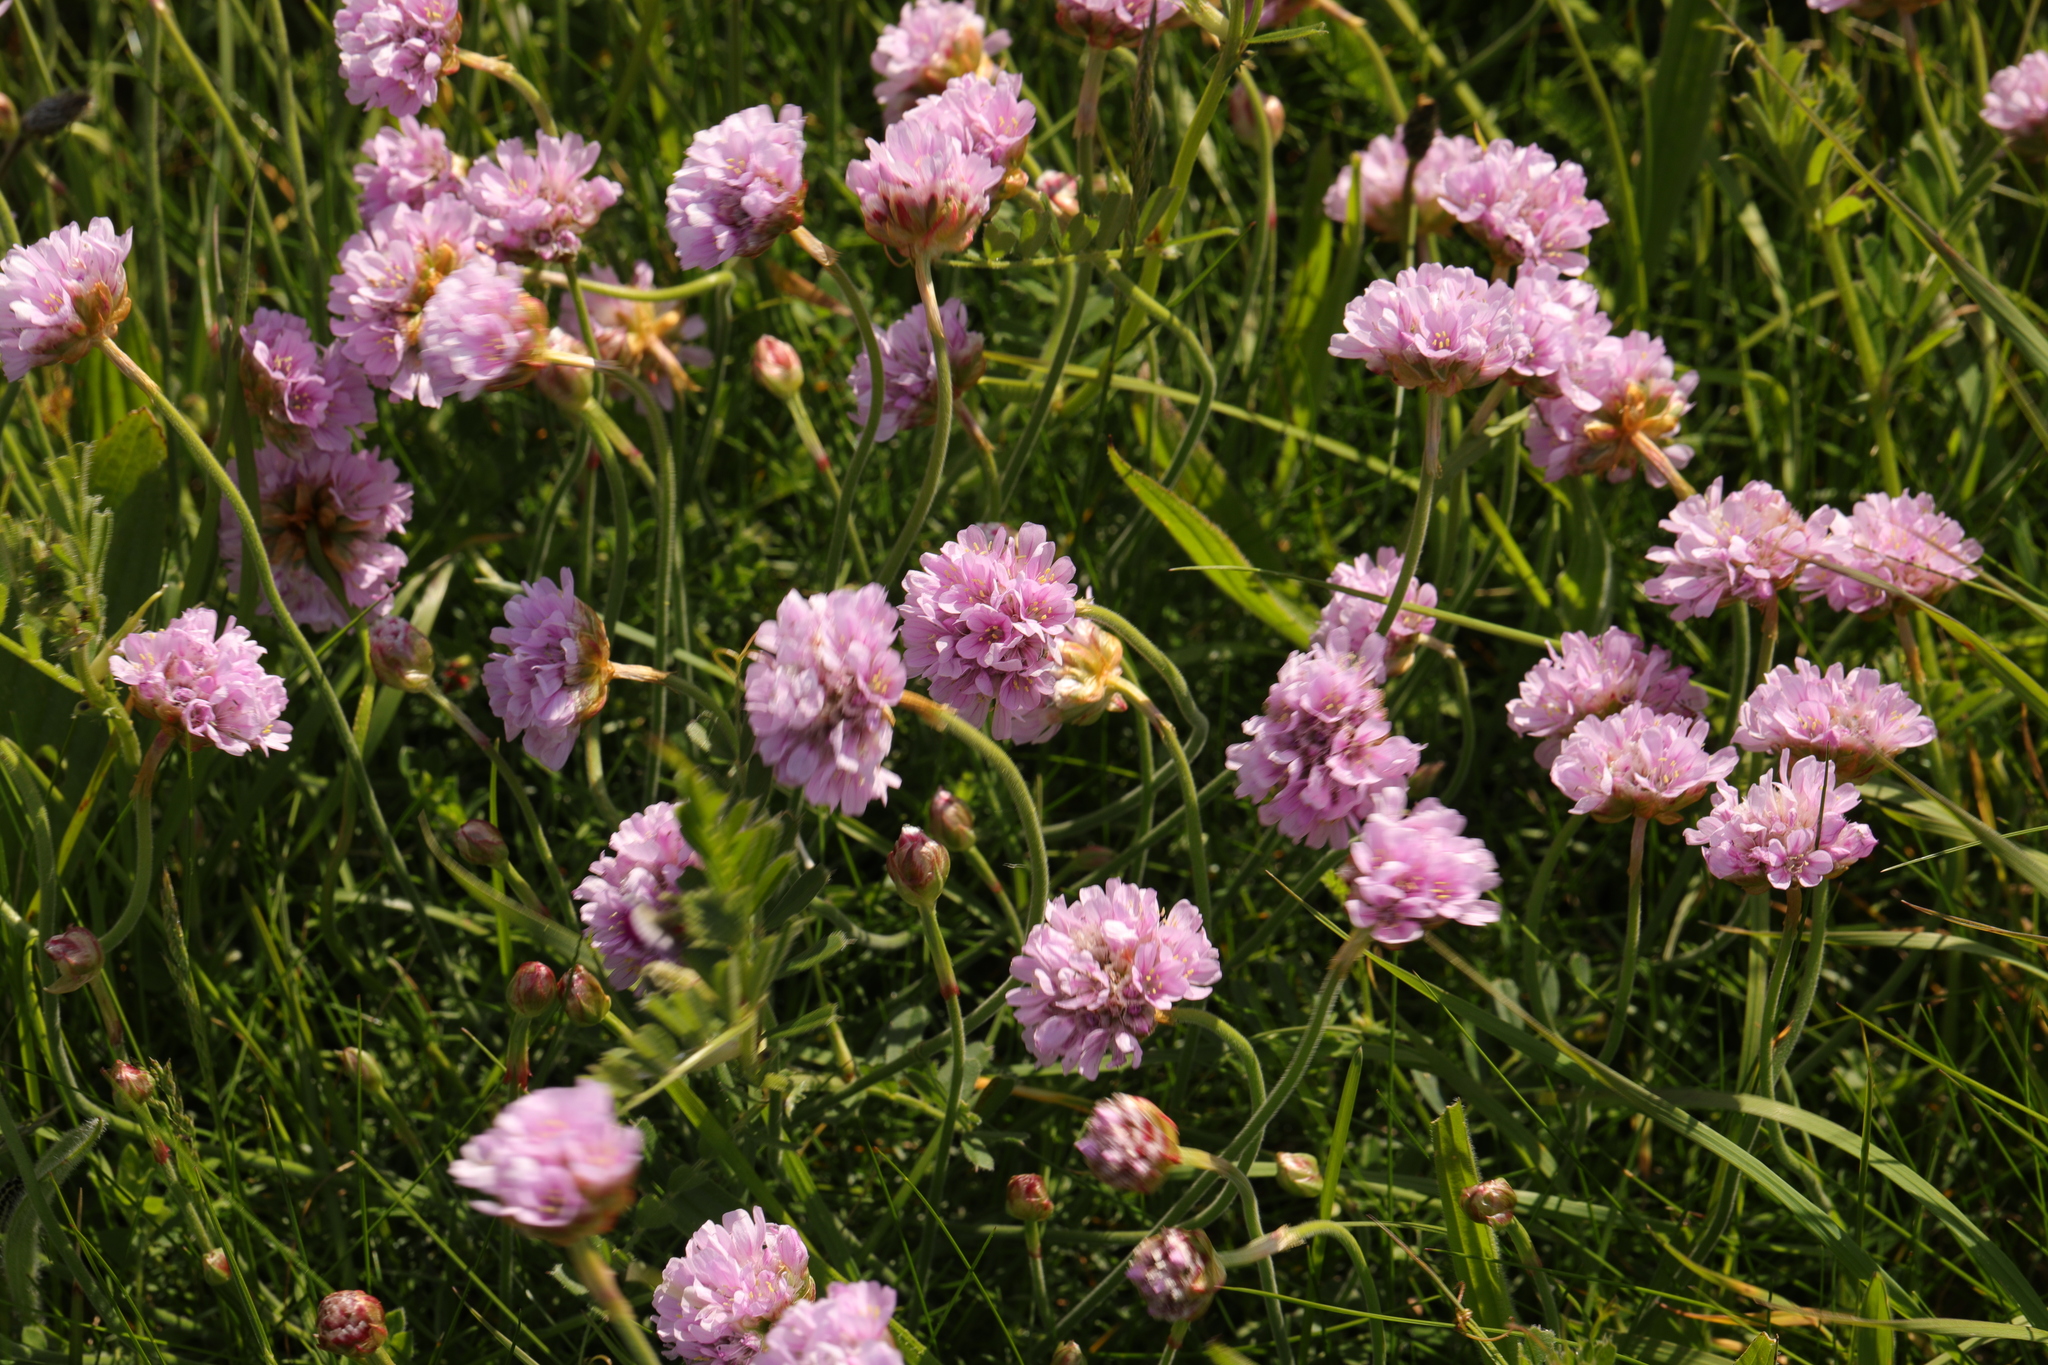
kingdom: Plantae
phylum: Tracheophyta
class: Magnoliopsida
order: Caryophyllales
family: Plumbaginaceae
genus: Armeria
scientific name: Armeria maritima
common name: Thrift
